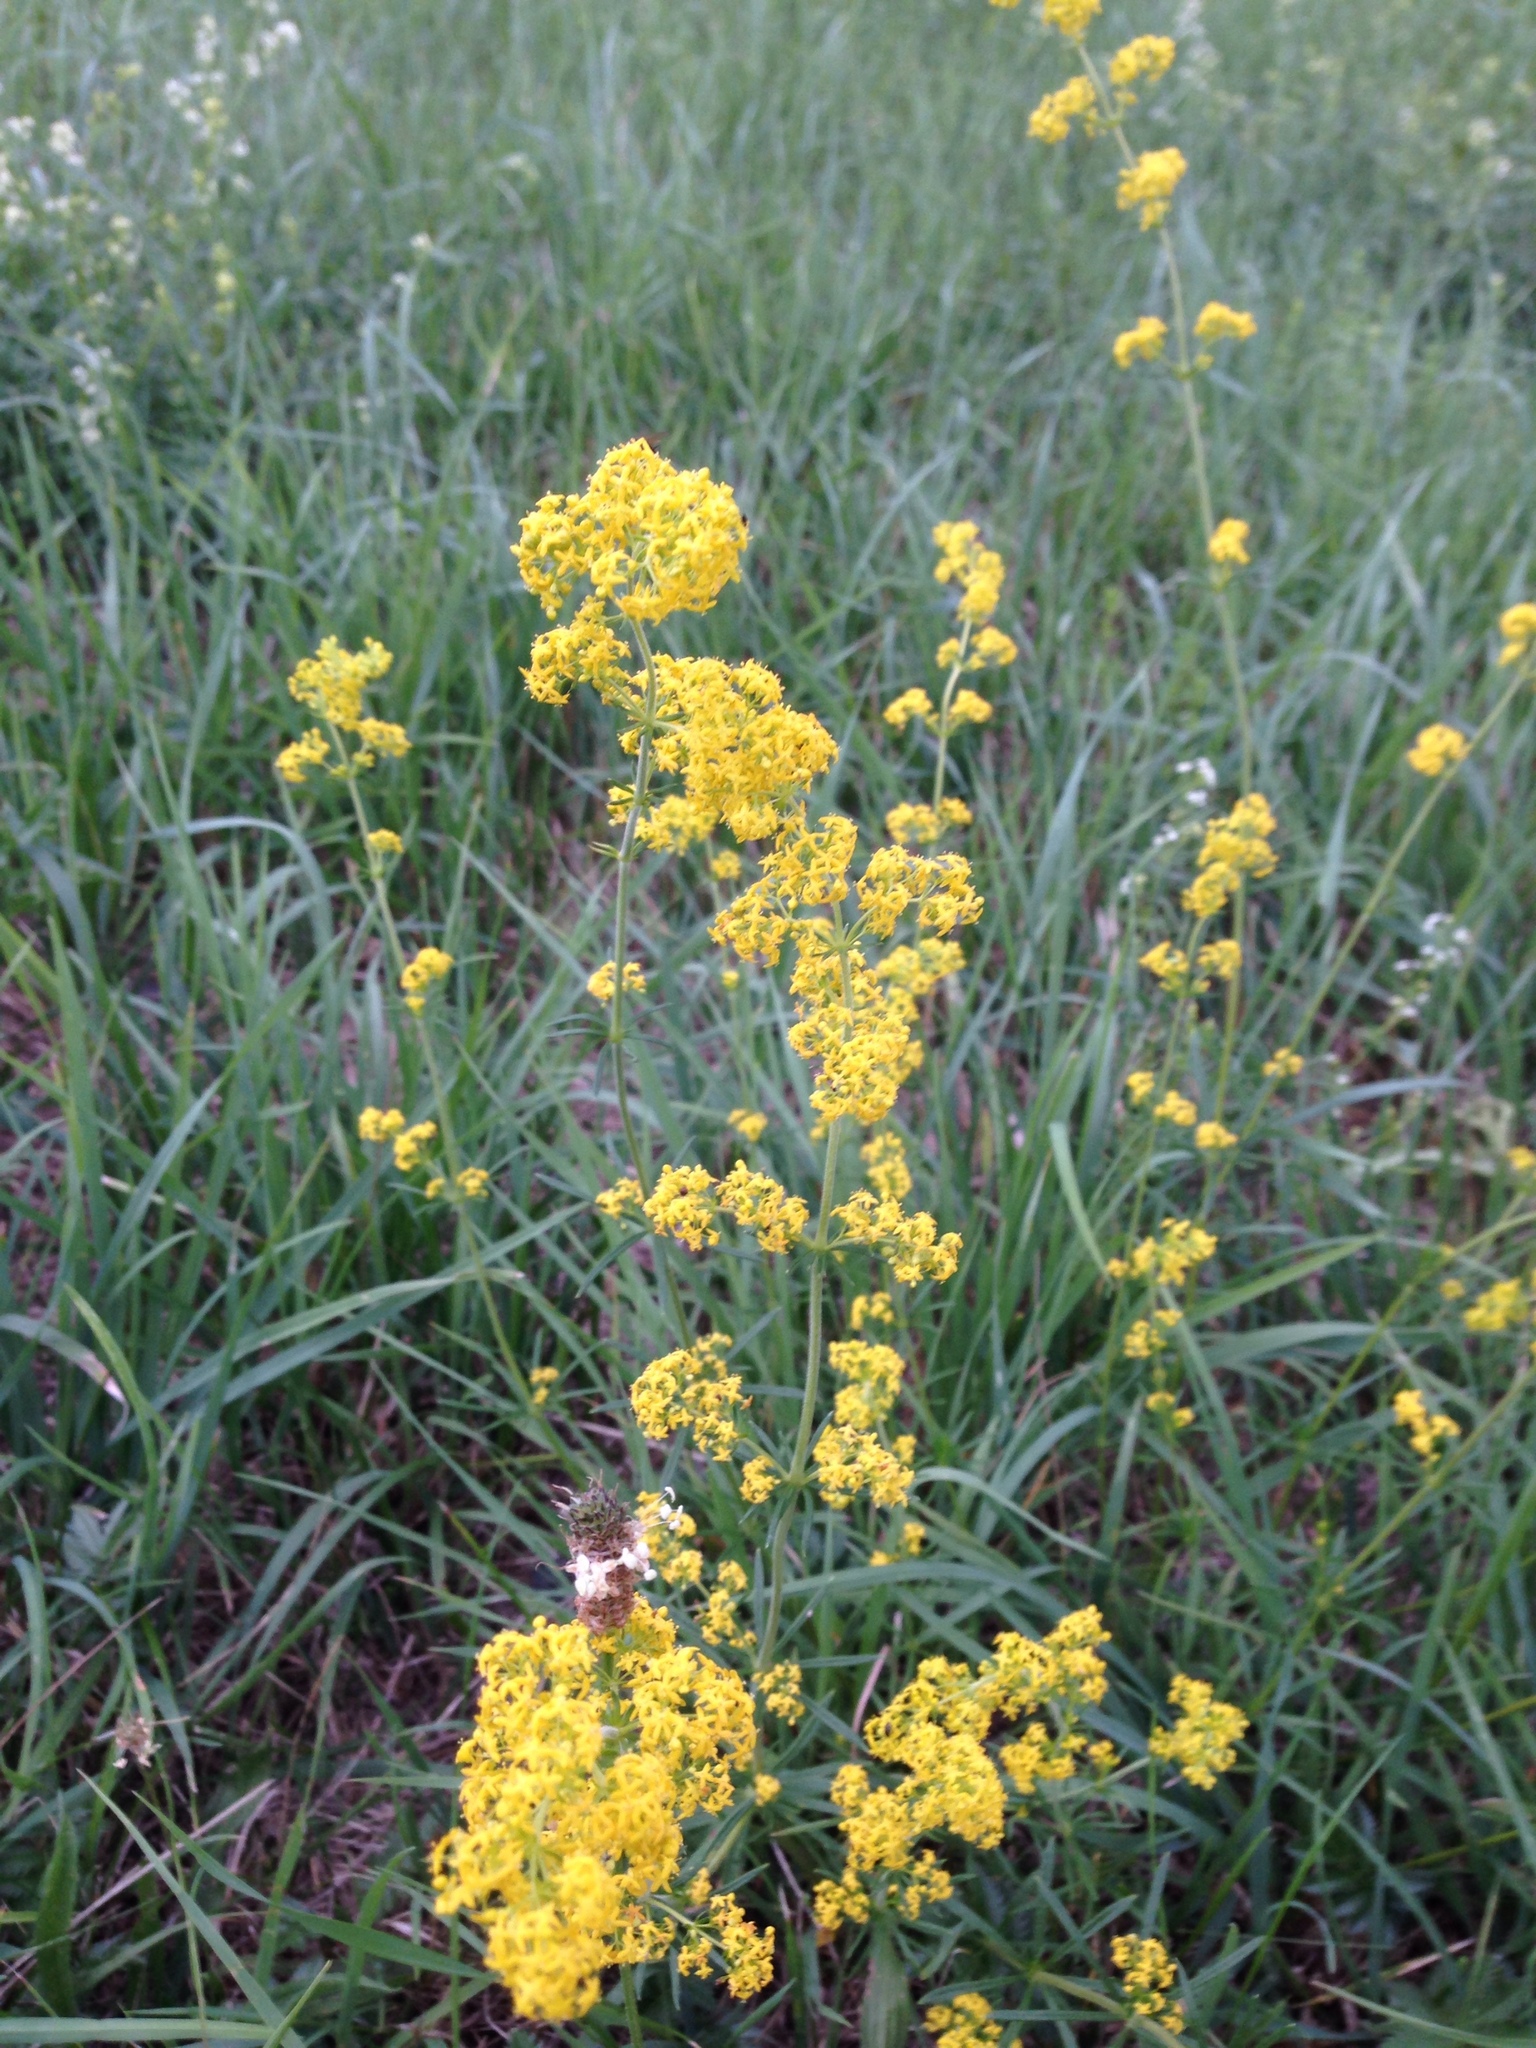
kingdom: Plantae
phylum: Tracheophyta
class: Magnoliopsida
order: Gentianales
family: Rubiaceae
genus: Galium
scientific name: Galium verum
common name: Lady's bedstraw
